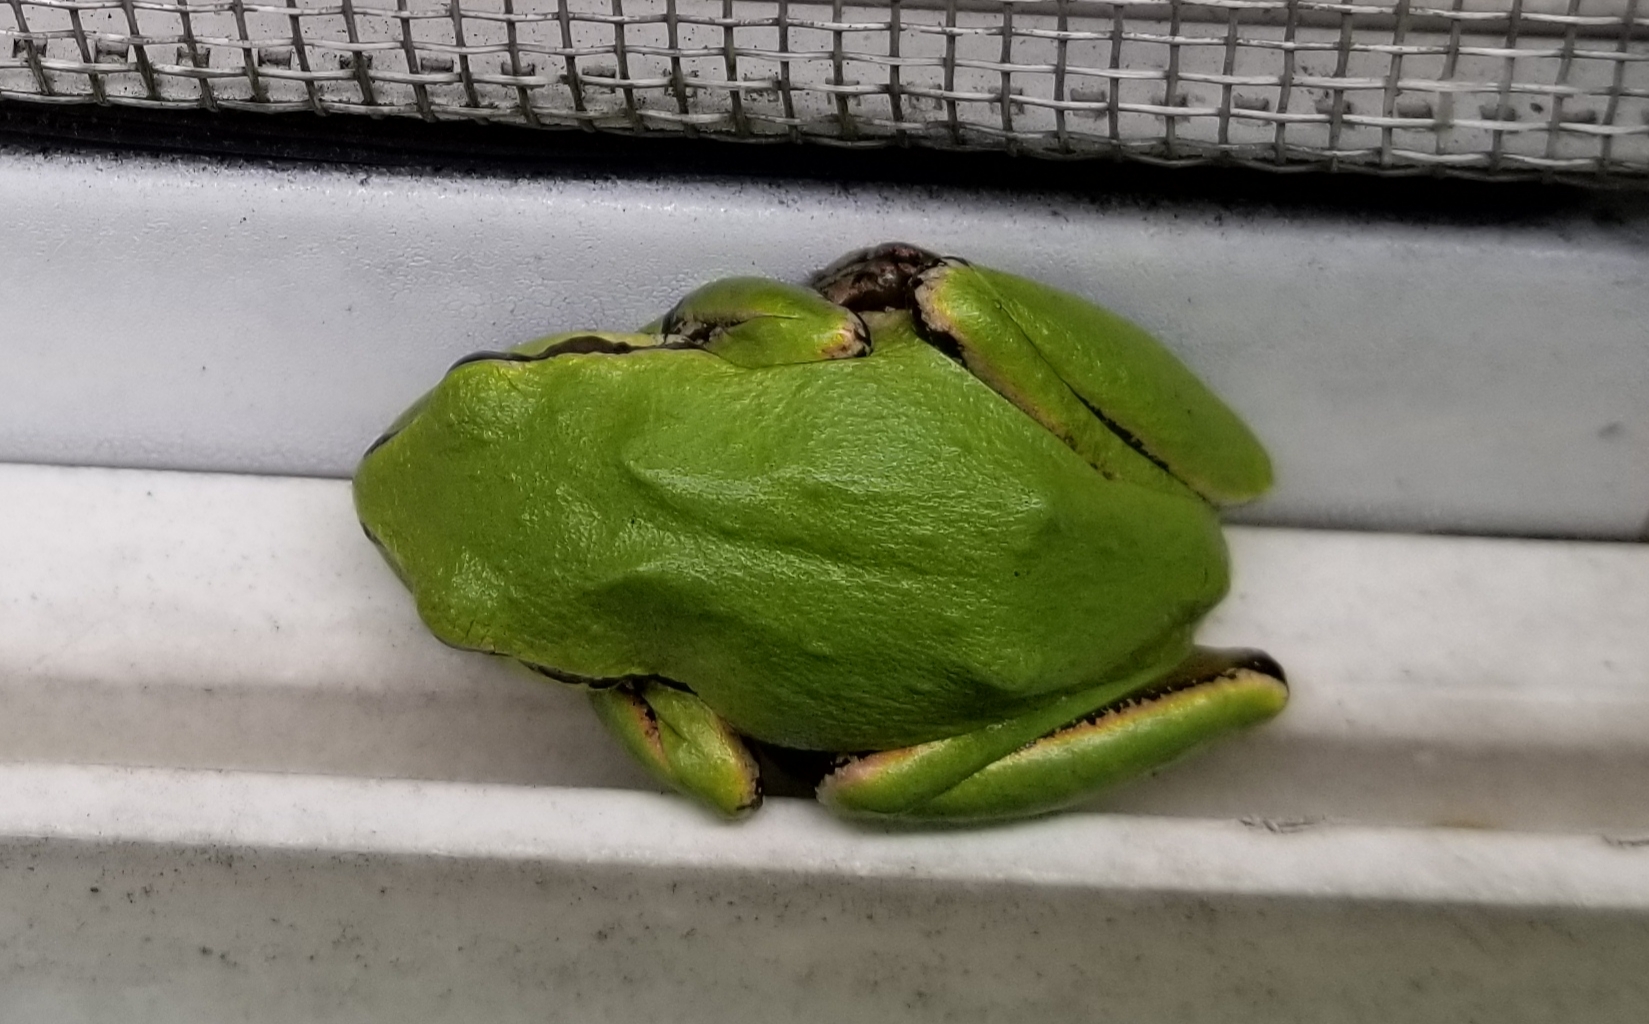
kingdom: Animalia
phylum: Chordata
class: Amphibia
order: Anura
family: Hylidae
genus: Pseudacris
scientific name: Pseudacris regilla
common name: Pacific chorus frog
